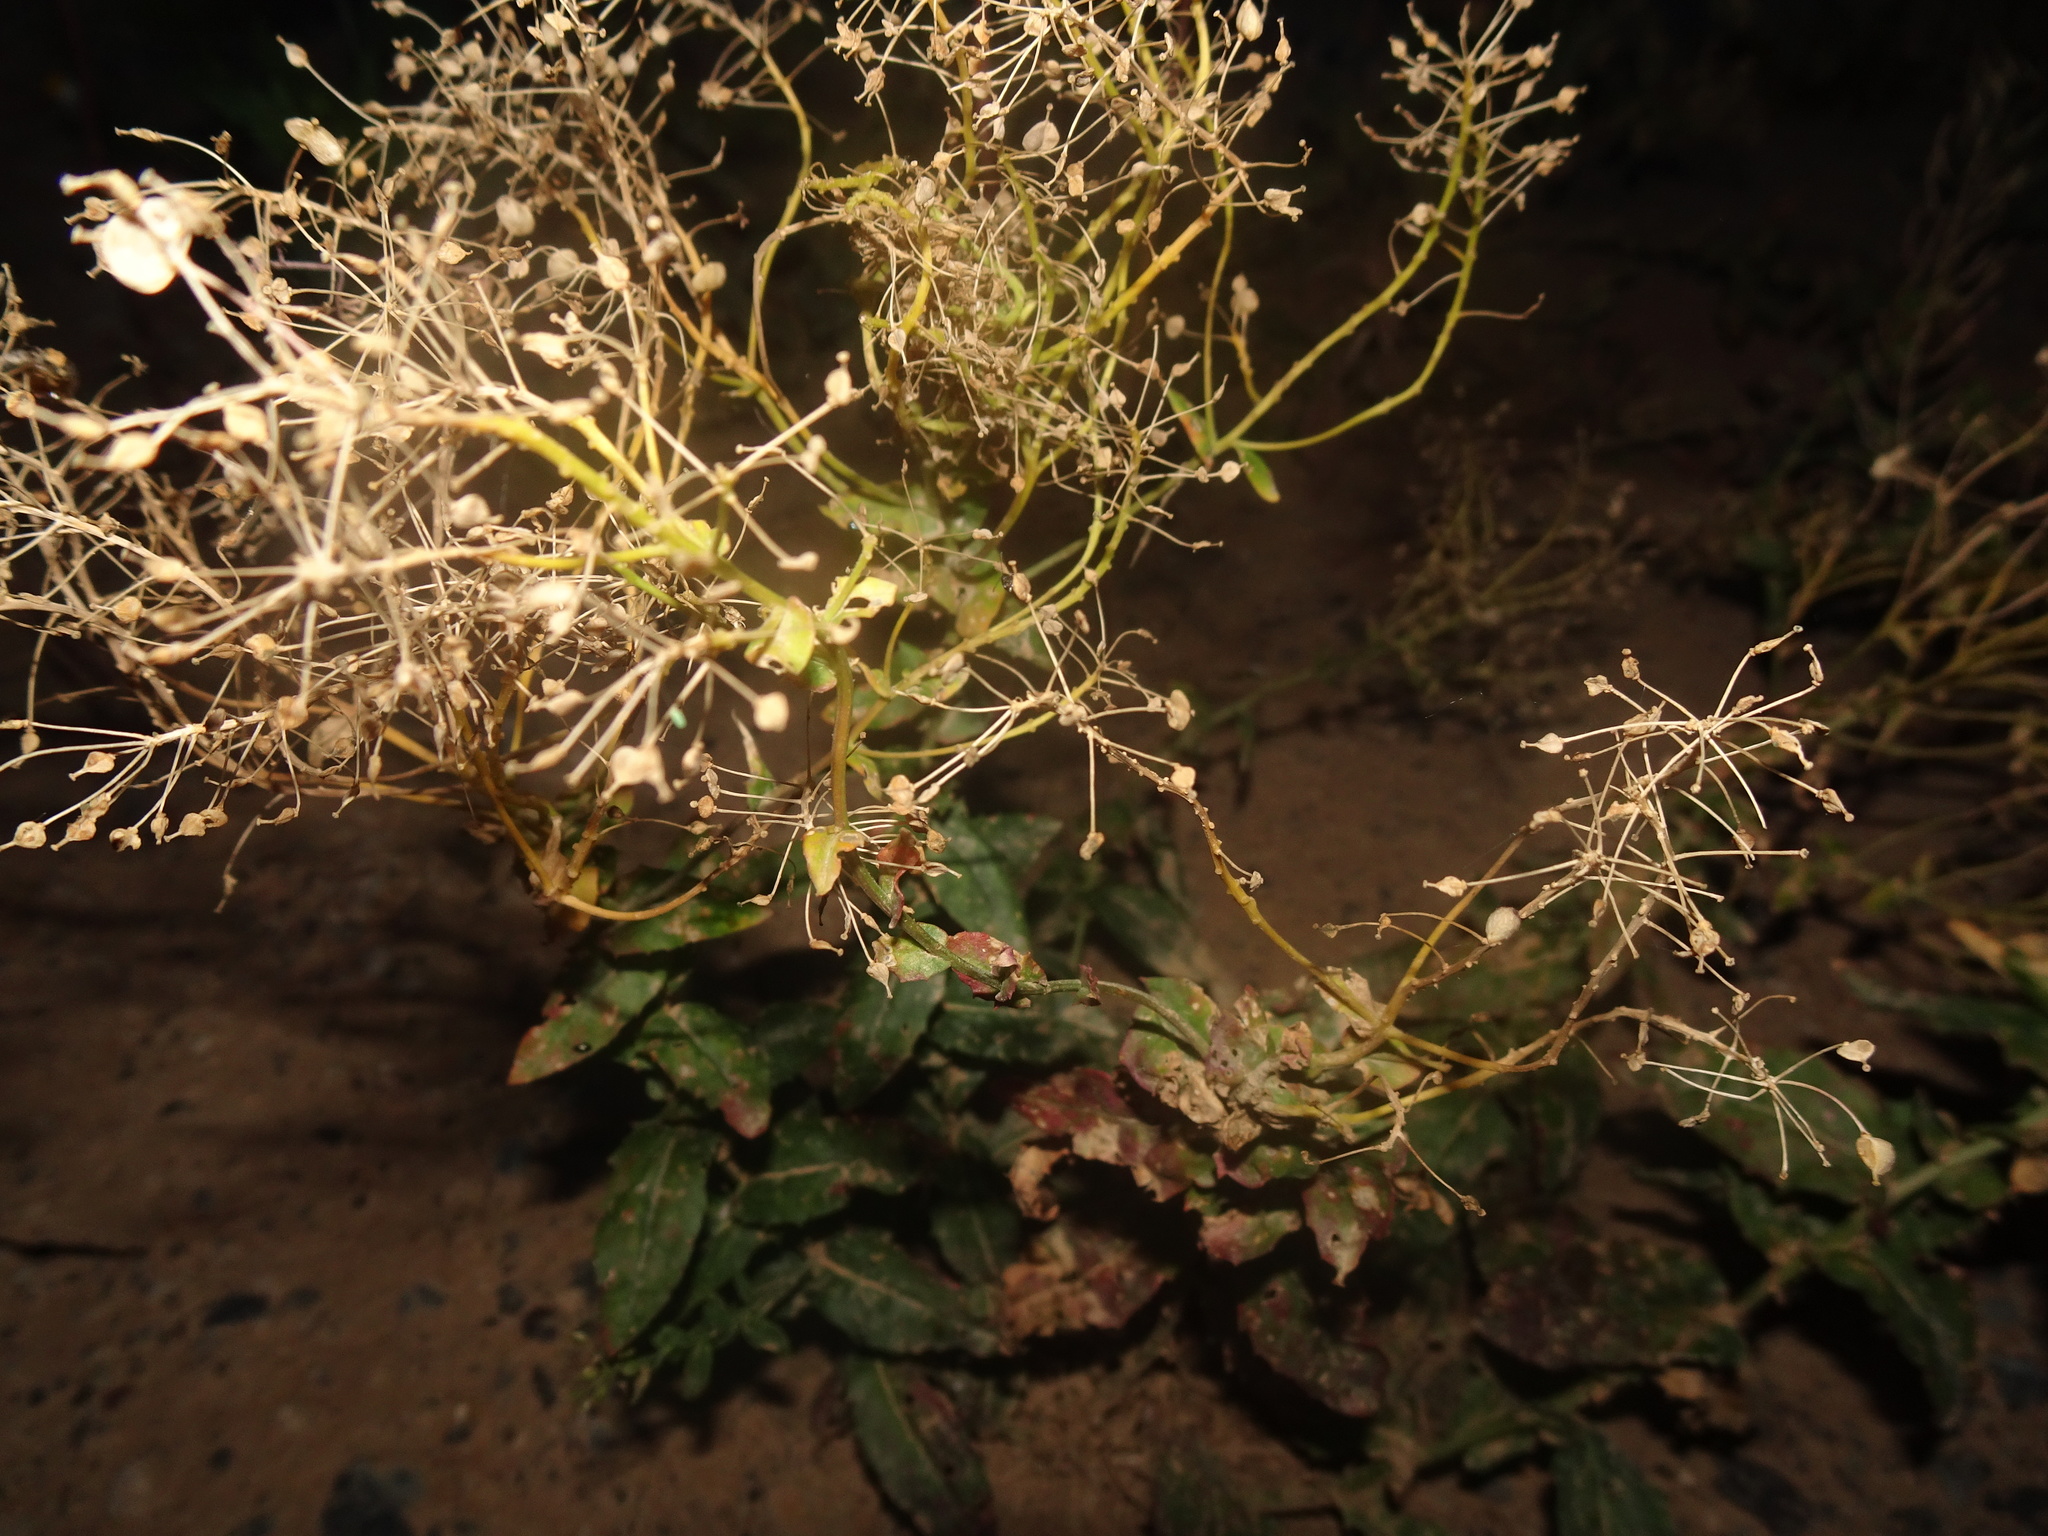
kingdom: Plantae
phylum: Tracheophyta
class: Magnoliopsida
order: Brassicales
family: Brassicaceae
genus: Lepidium
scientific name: Lepidium draba
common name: Hoary cress
